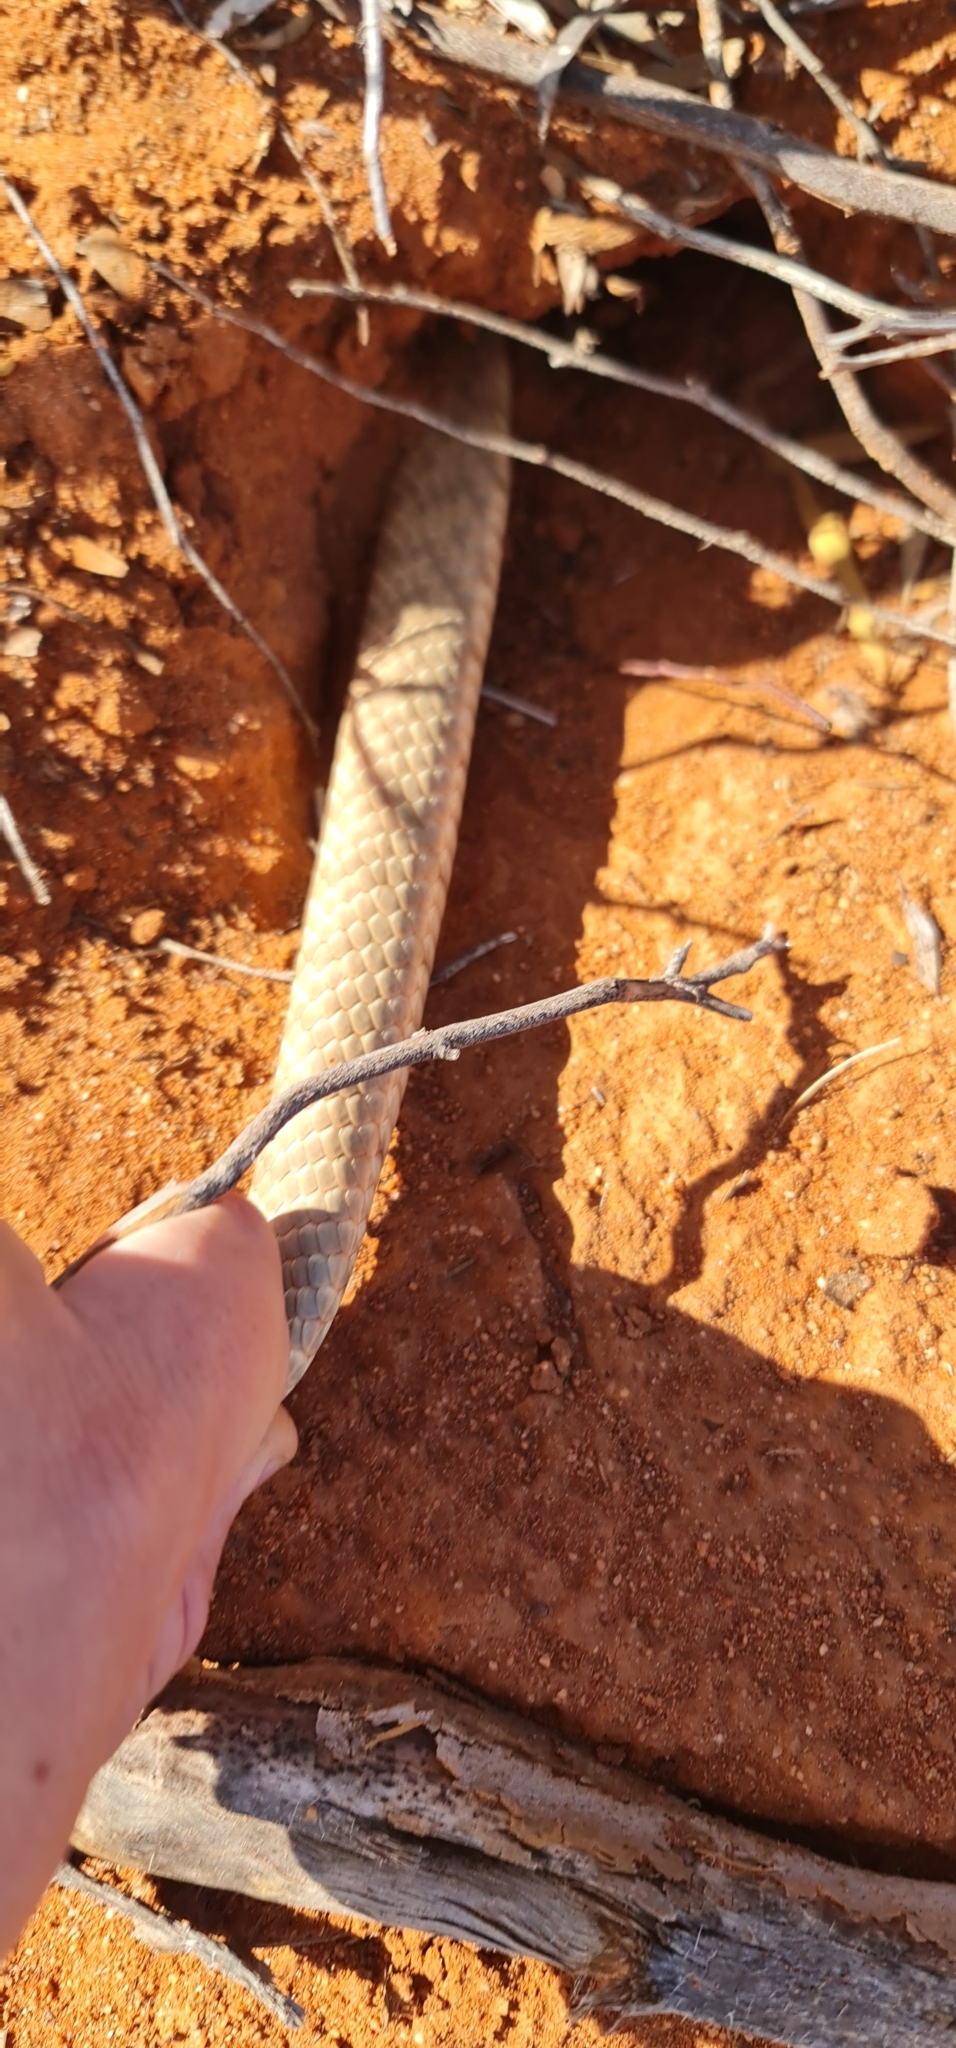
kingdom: Animalia
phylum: Chordata
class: Squamata
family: Elapidae
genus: Pseudonaja
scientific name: Pseudonaja aspidorhyncha
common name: Strap-snouted brown snake
